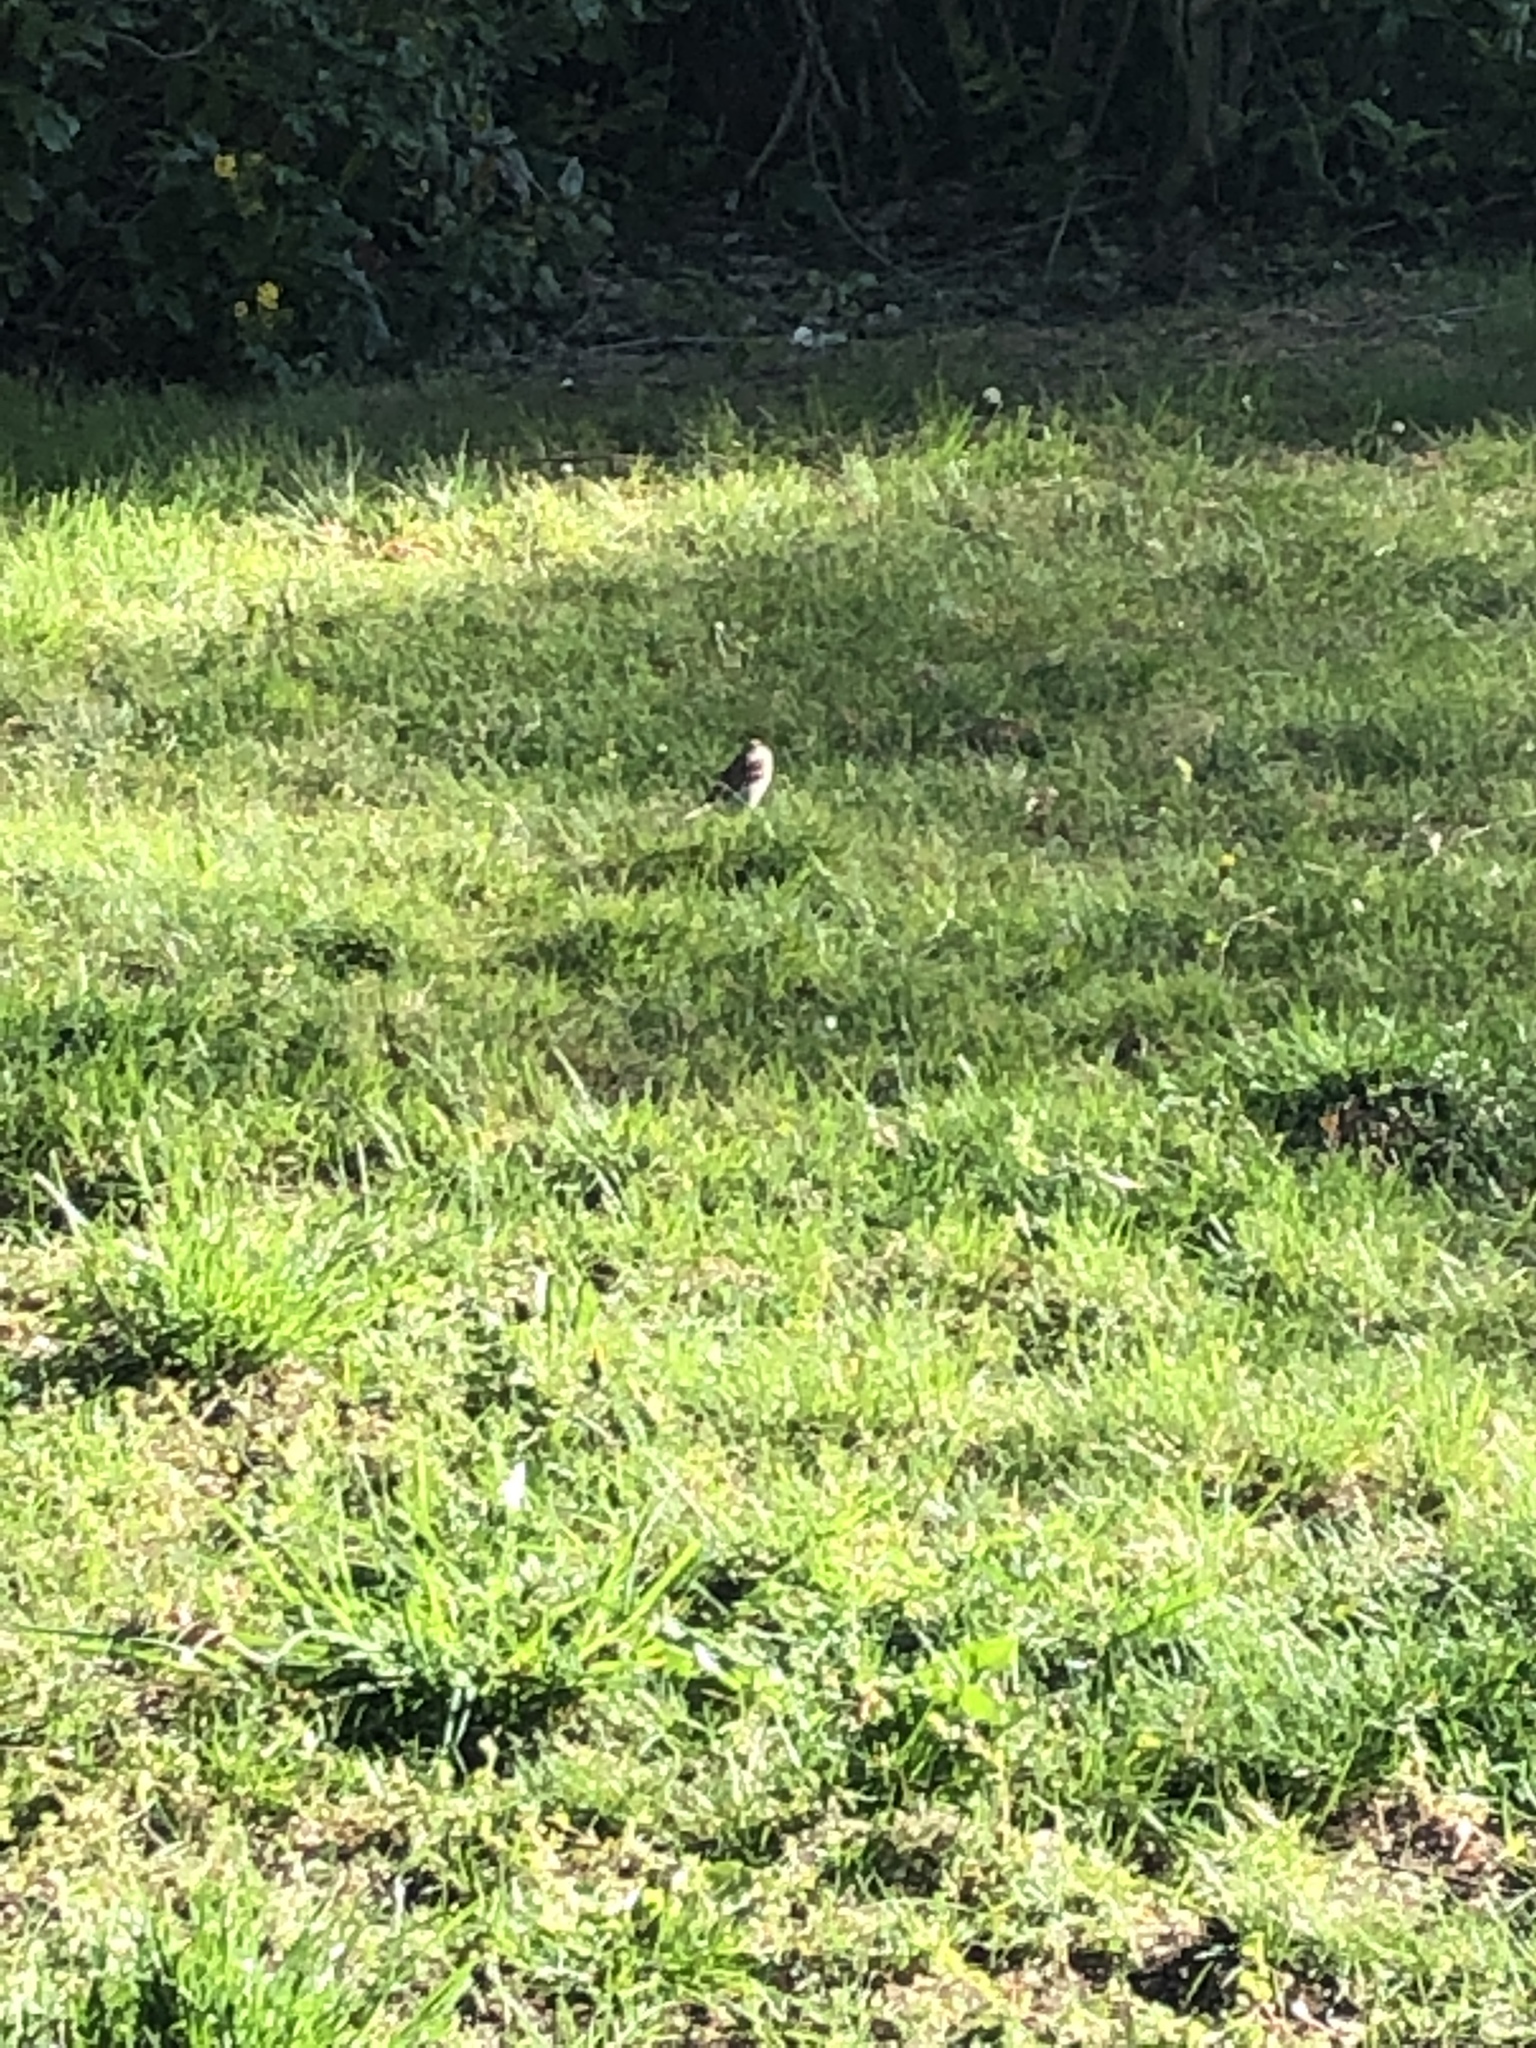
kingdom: Animalia
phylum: Chordata
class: Aves
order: Passeriformes
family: Passeridae
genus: Passer
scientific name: Passer domesticus
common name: House sparrow
